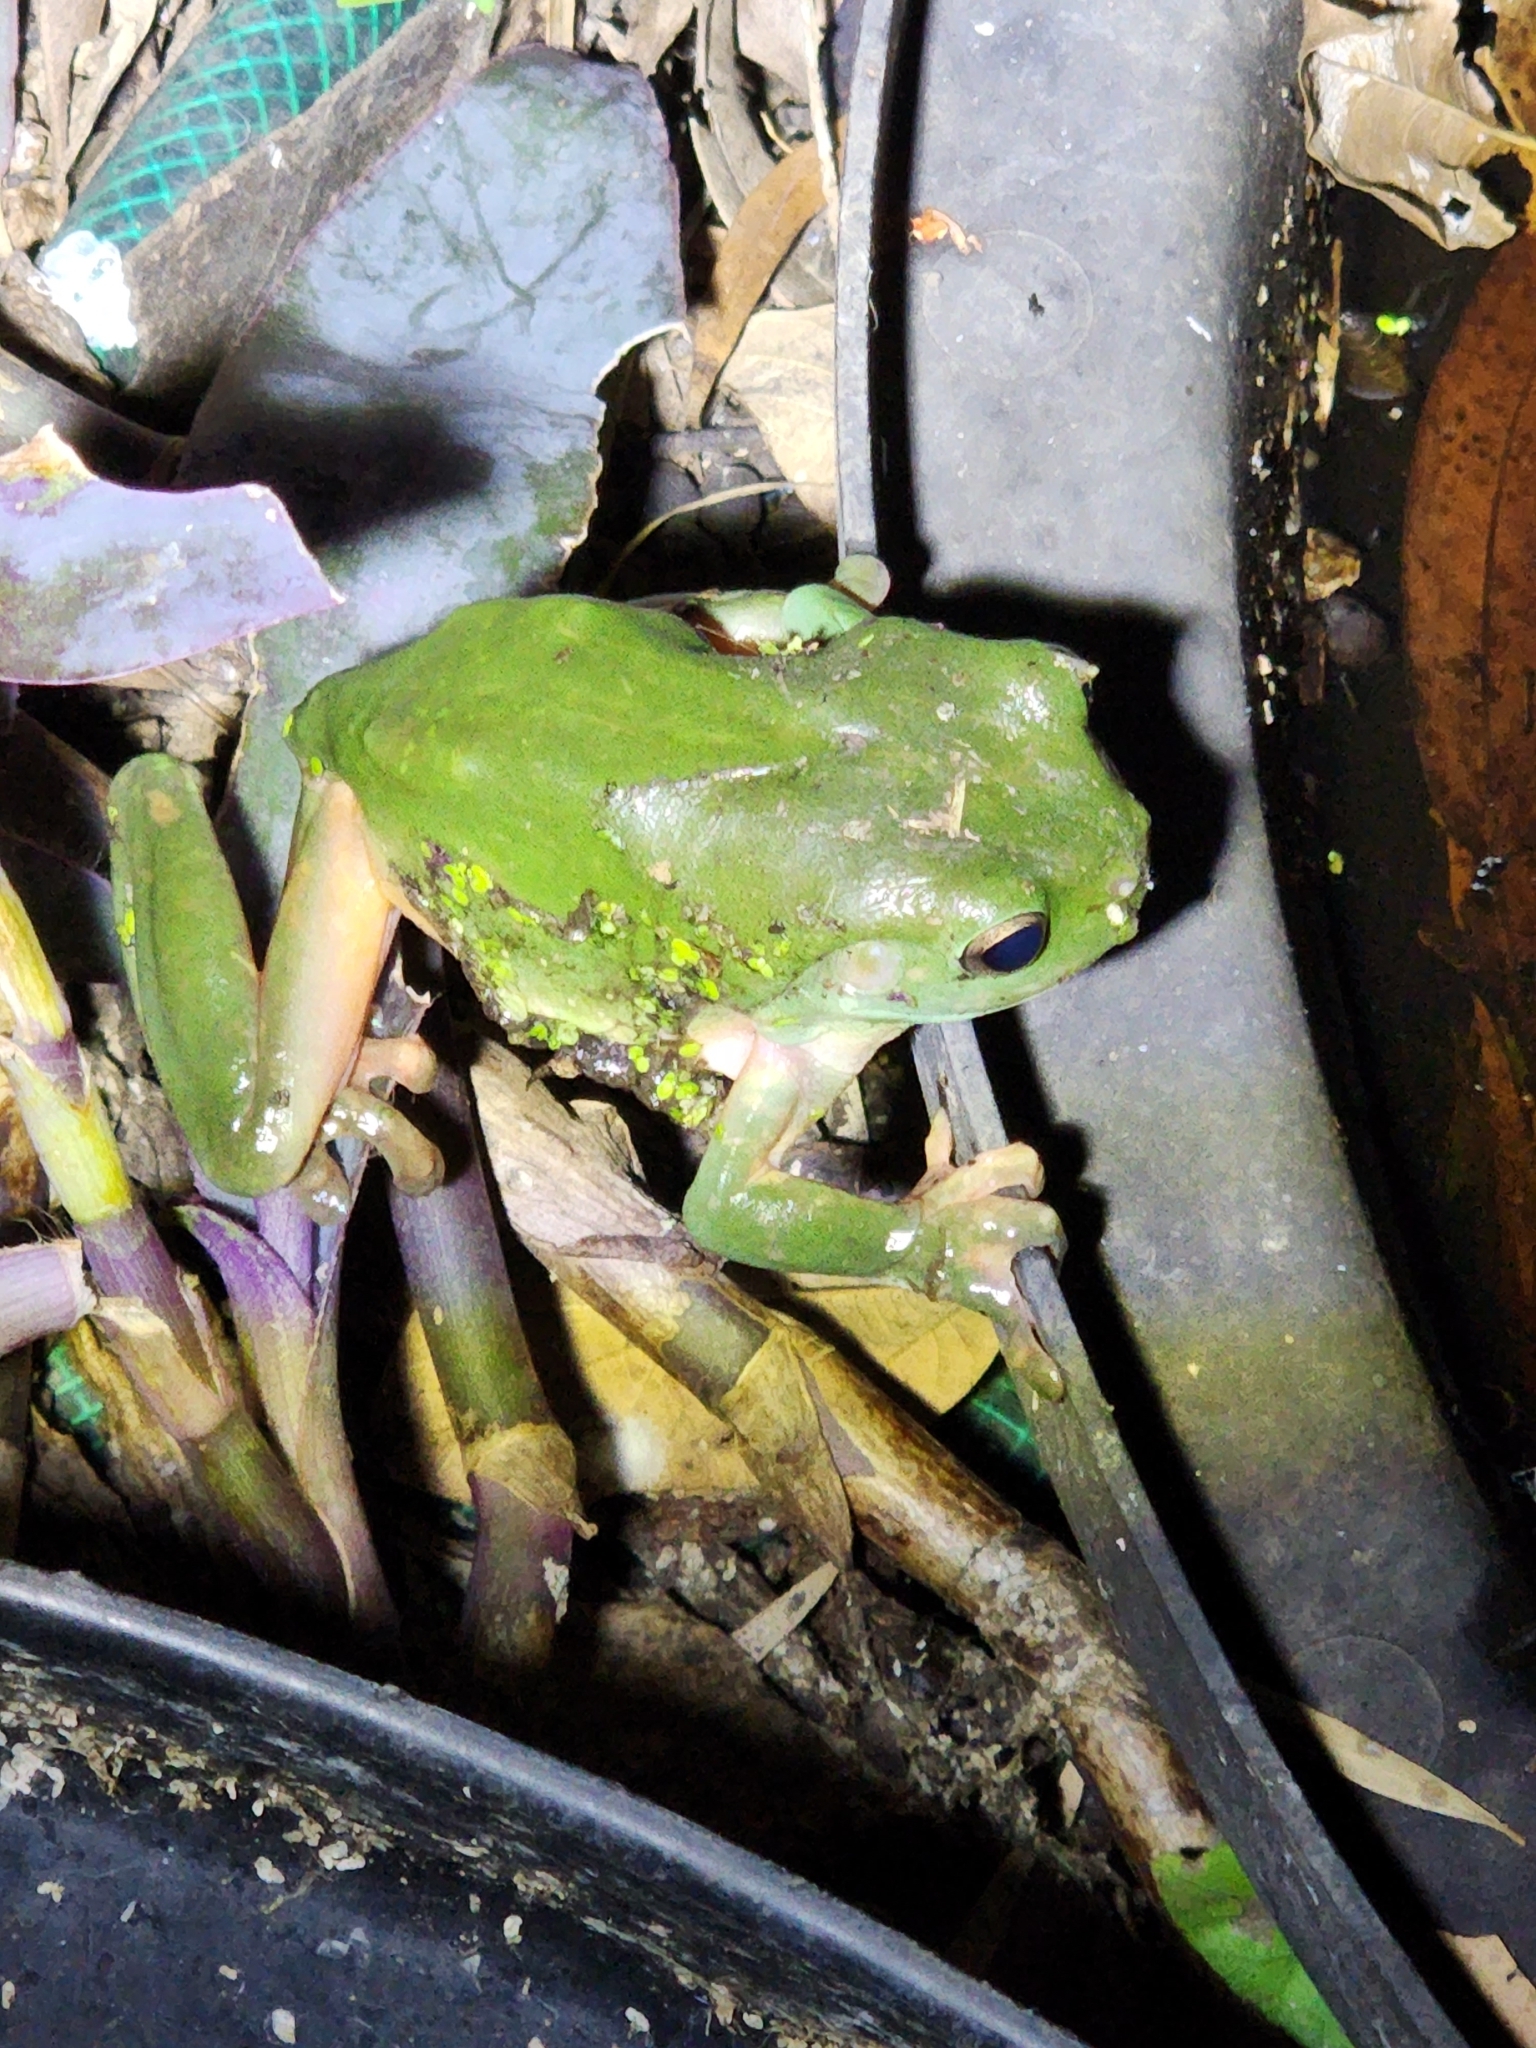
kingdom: Animalia
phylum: Chordata
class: Amphibia
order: Anura
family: Pelodryadidae
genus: Ranoidea
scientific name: Ranoidea caerulea
